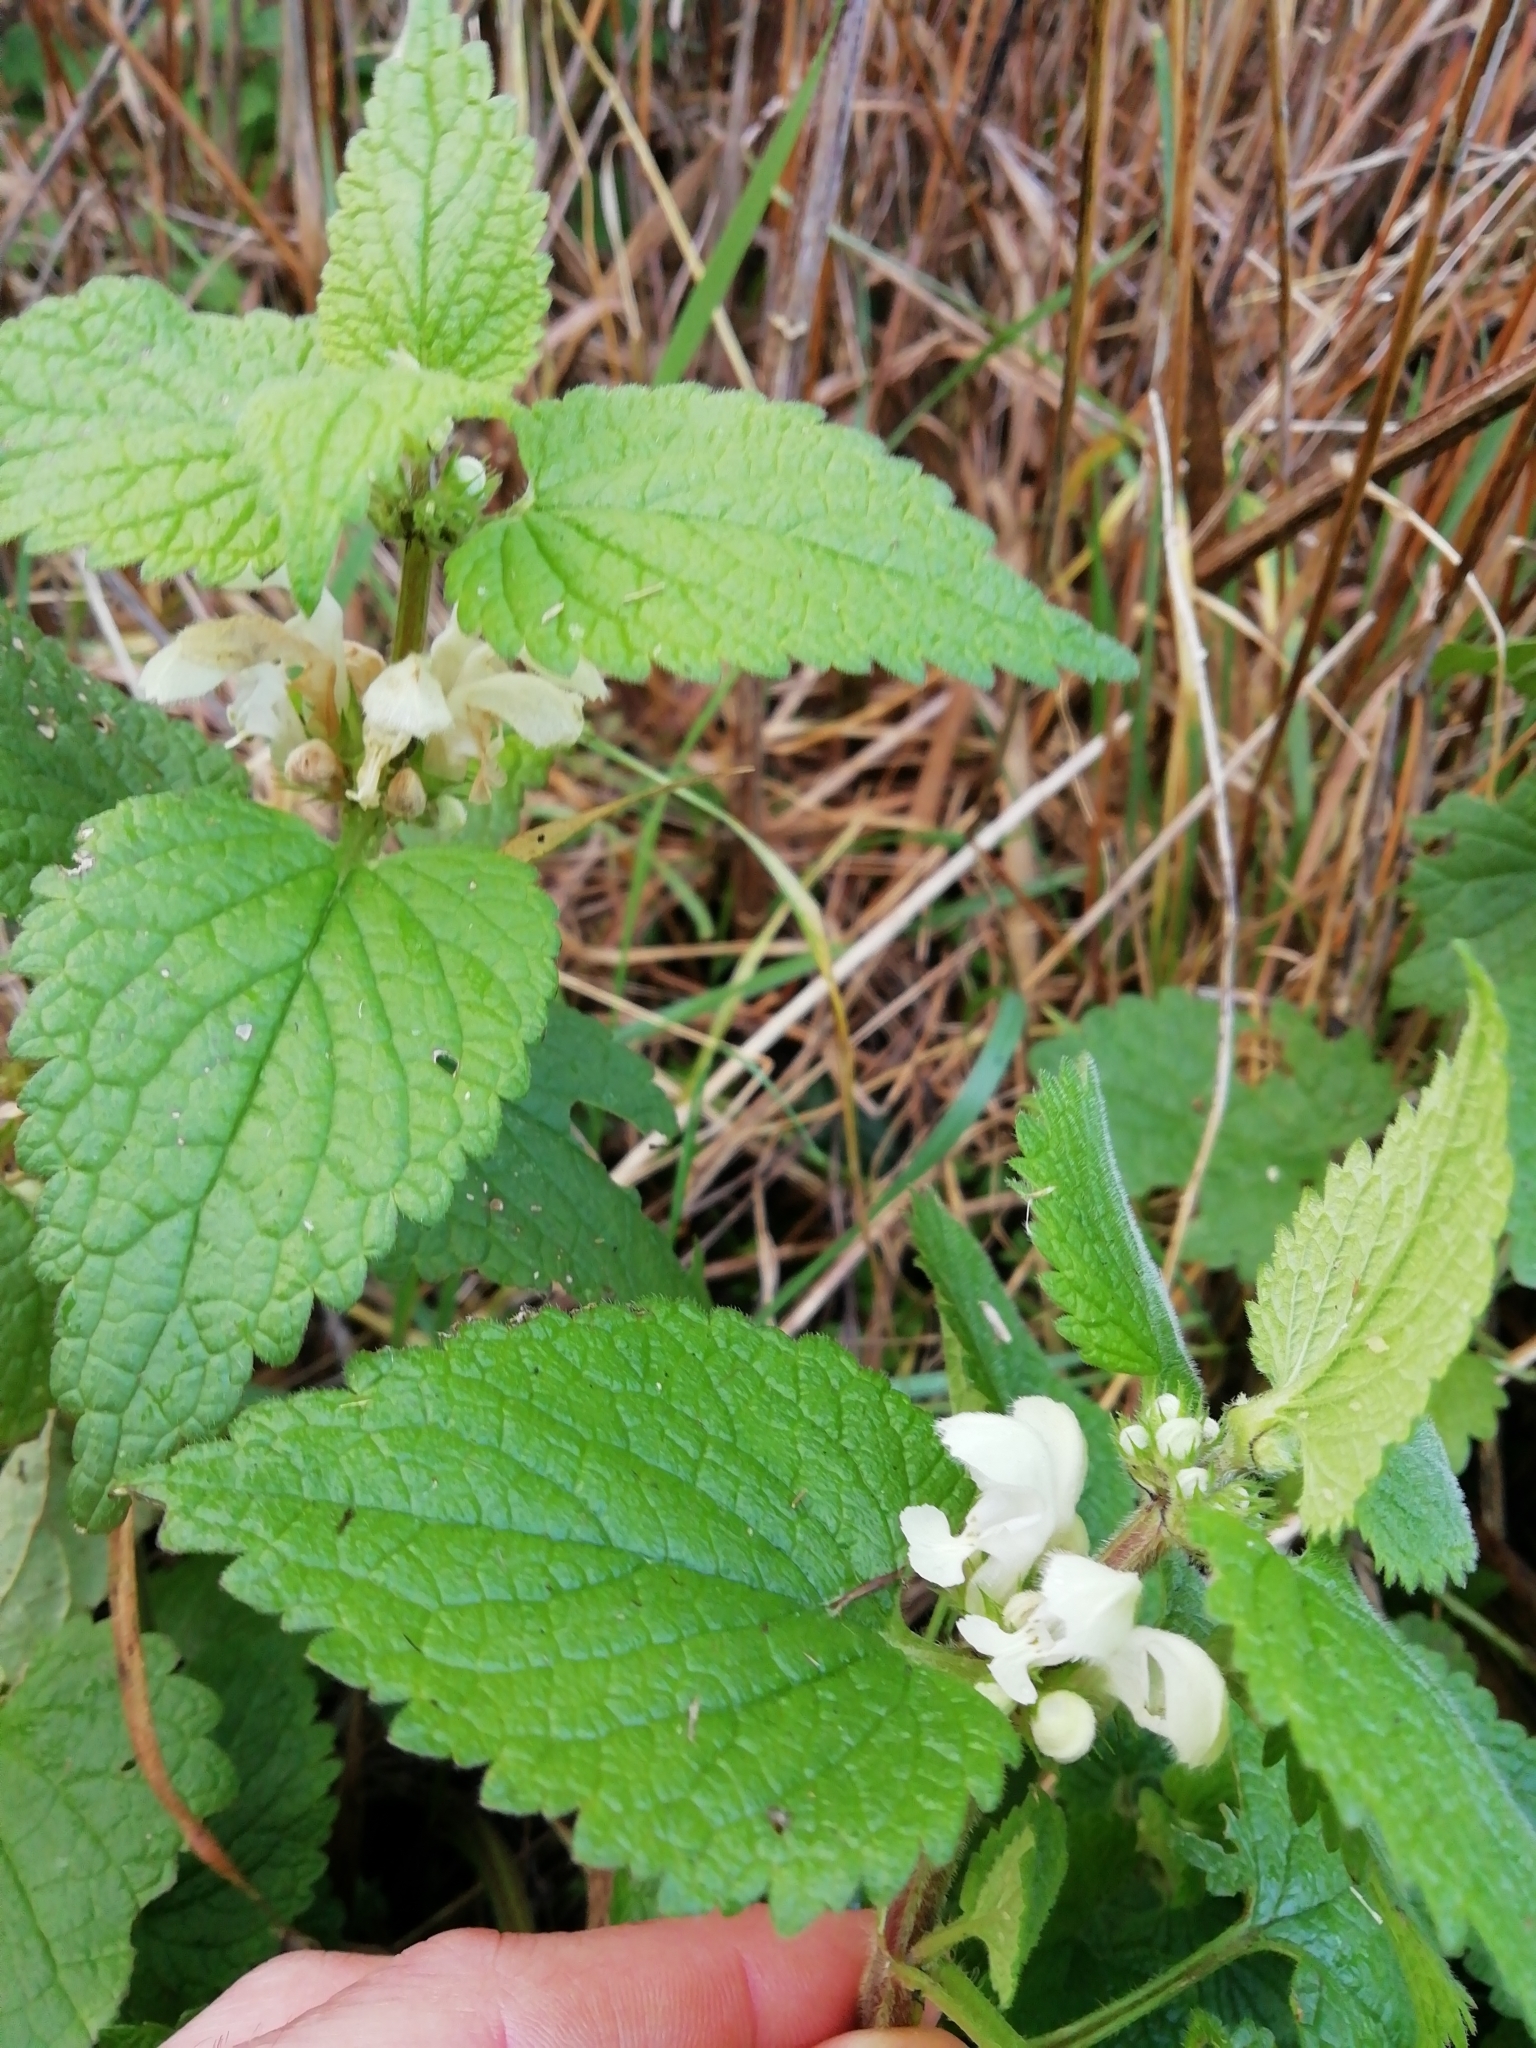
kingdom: Plantae
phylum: Tracheophyta
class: Magnoliopsida
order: Lamiales
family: Lamiaceae
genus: Lamium
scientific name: Lamium album
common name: White dead-nettle
